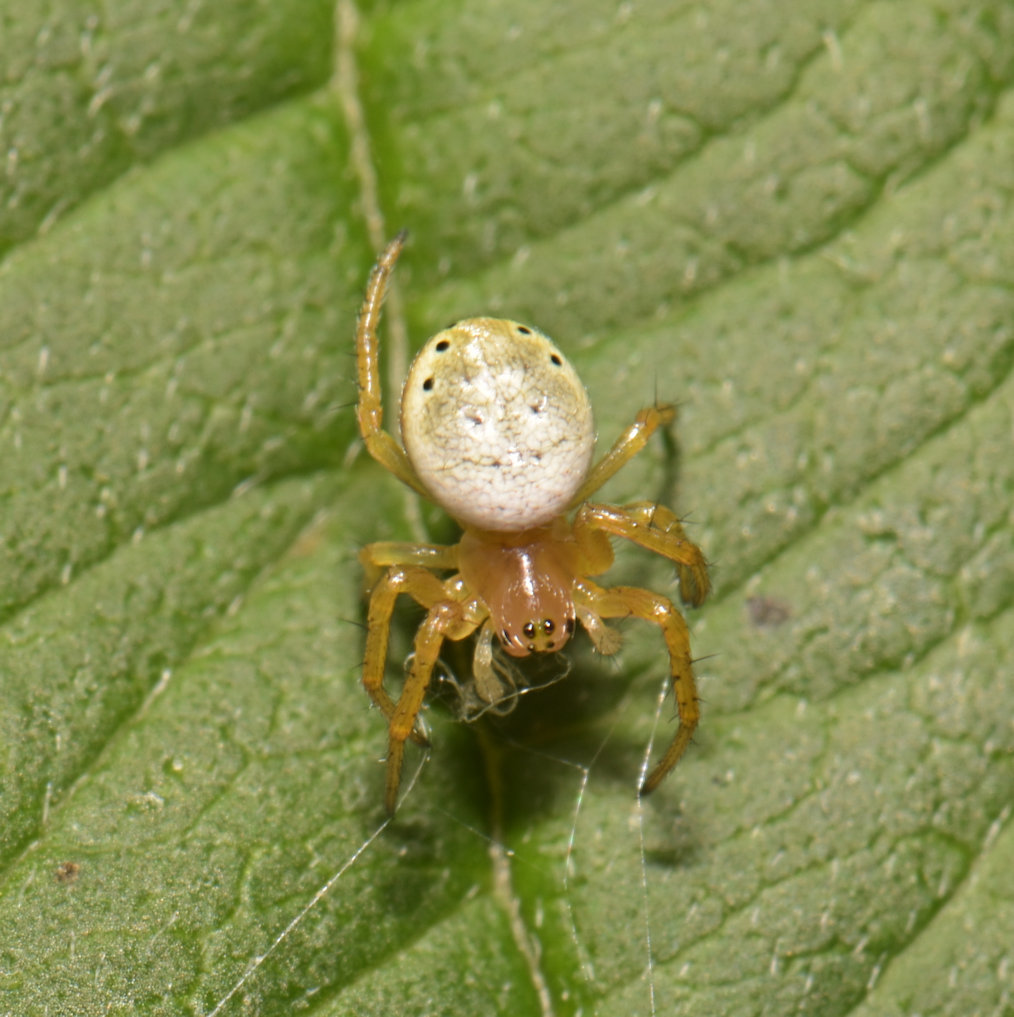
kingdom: Animalia
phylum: Arthropoda
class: Arachnida
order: Araneae
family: Araneidae
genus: Araniella
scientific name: Araniella displicata
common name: Sixspotted orb weaver
